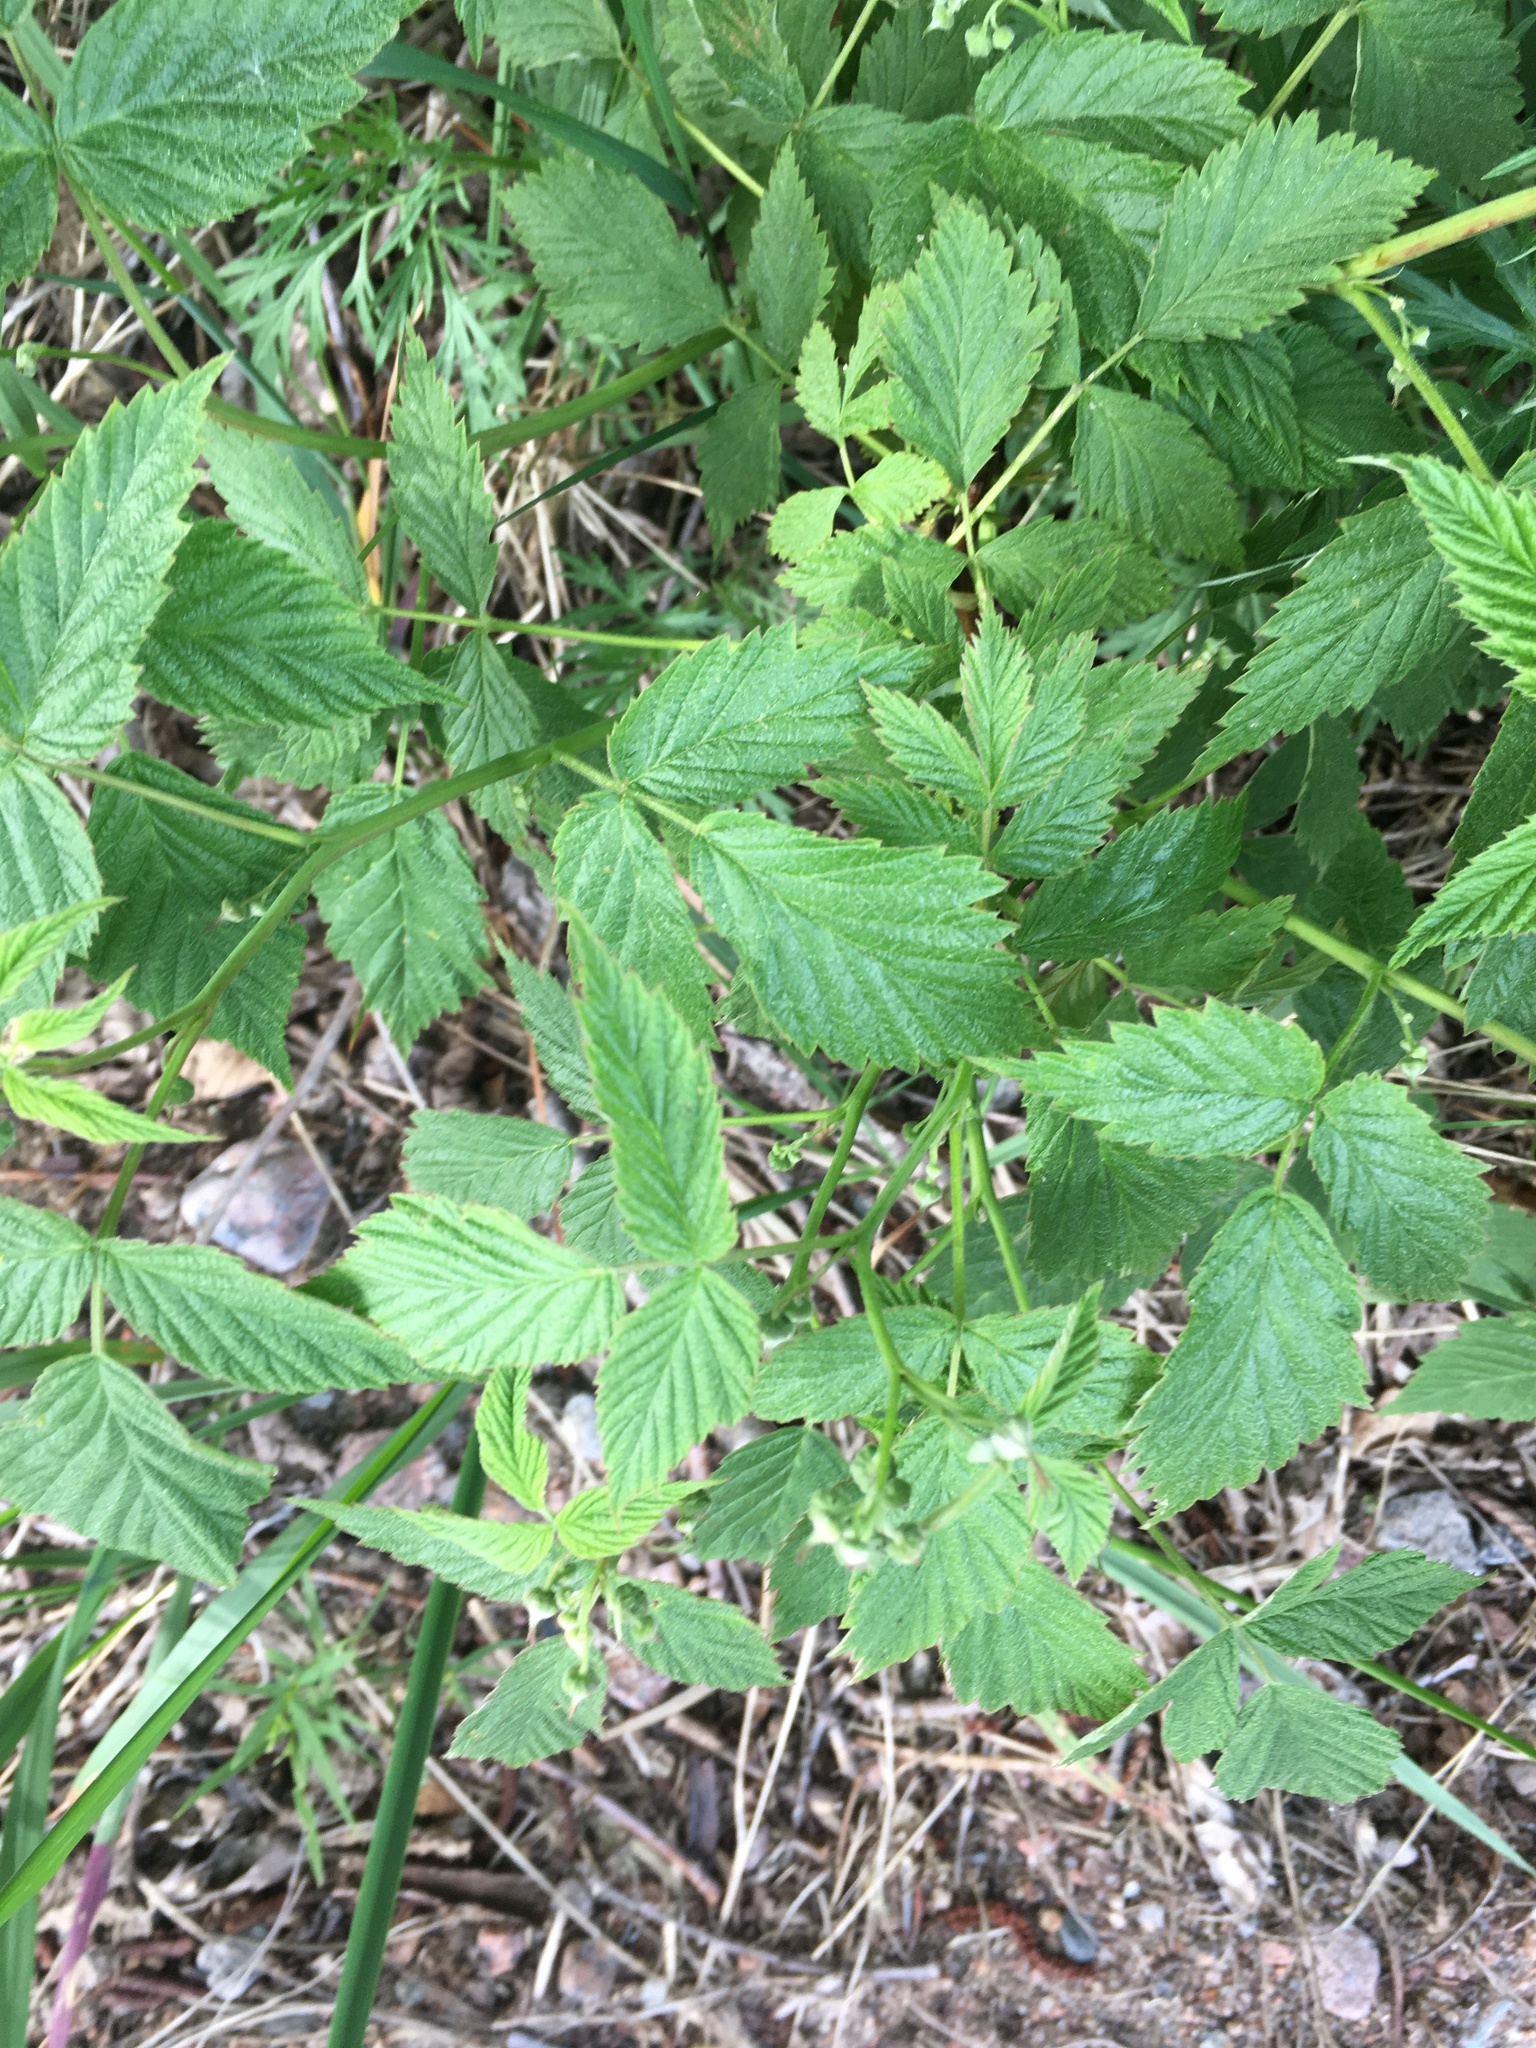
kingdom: Plantae
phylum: Tracheophyta
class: Magnoliopsida
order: Rosales
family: Rosaceae
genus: Rubus
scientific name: Rubus idaeus
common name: Raspberry
